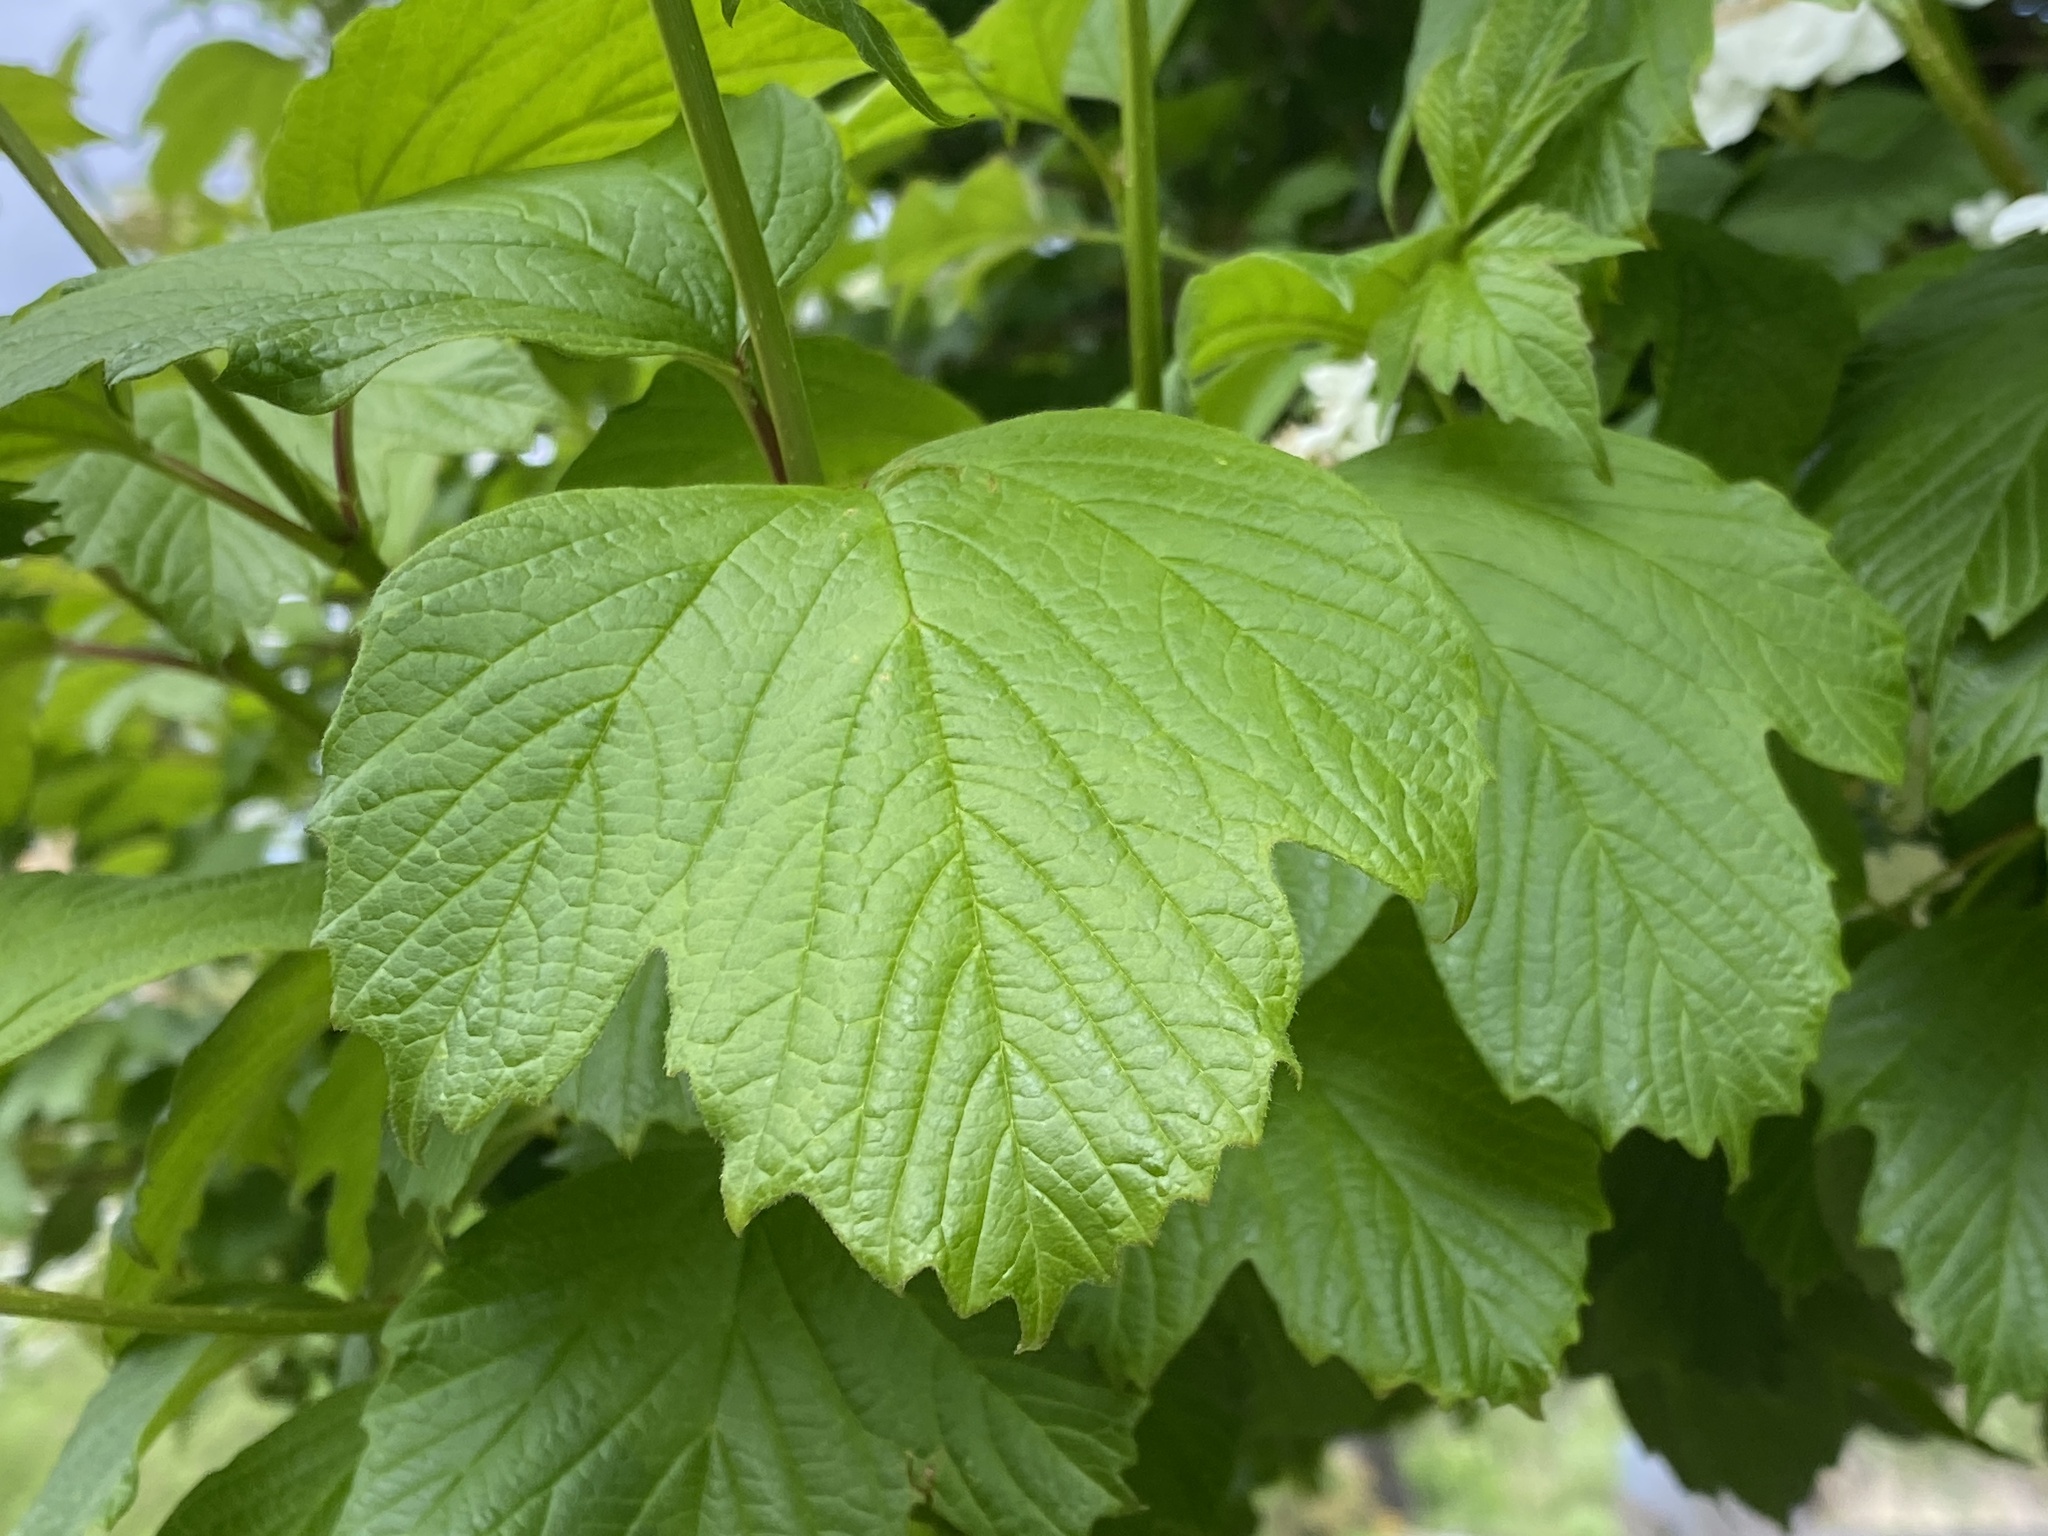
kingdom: Plantae
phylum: Tracheophyta
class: Magnoliopsida
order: Dipsacales
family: Viburnaceae
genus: Viburnum
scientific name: Viburnum opulus
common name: Guelder-rose
